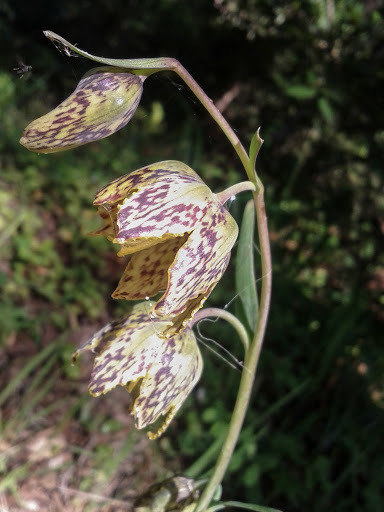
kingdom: Plantae
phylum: Tracheophyta
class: Liliopsida
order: Liliales
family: Liliaceae
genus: Fritillaria
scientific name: Fritillaria affinis
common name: Ojai fritillary
